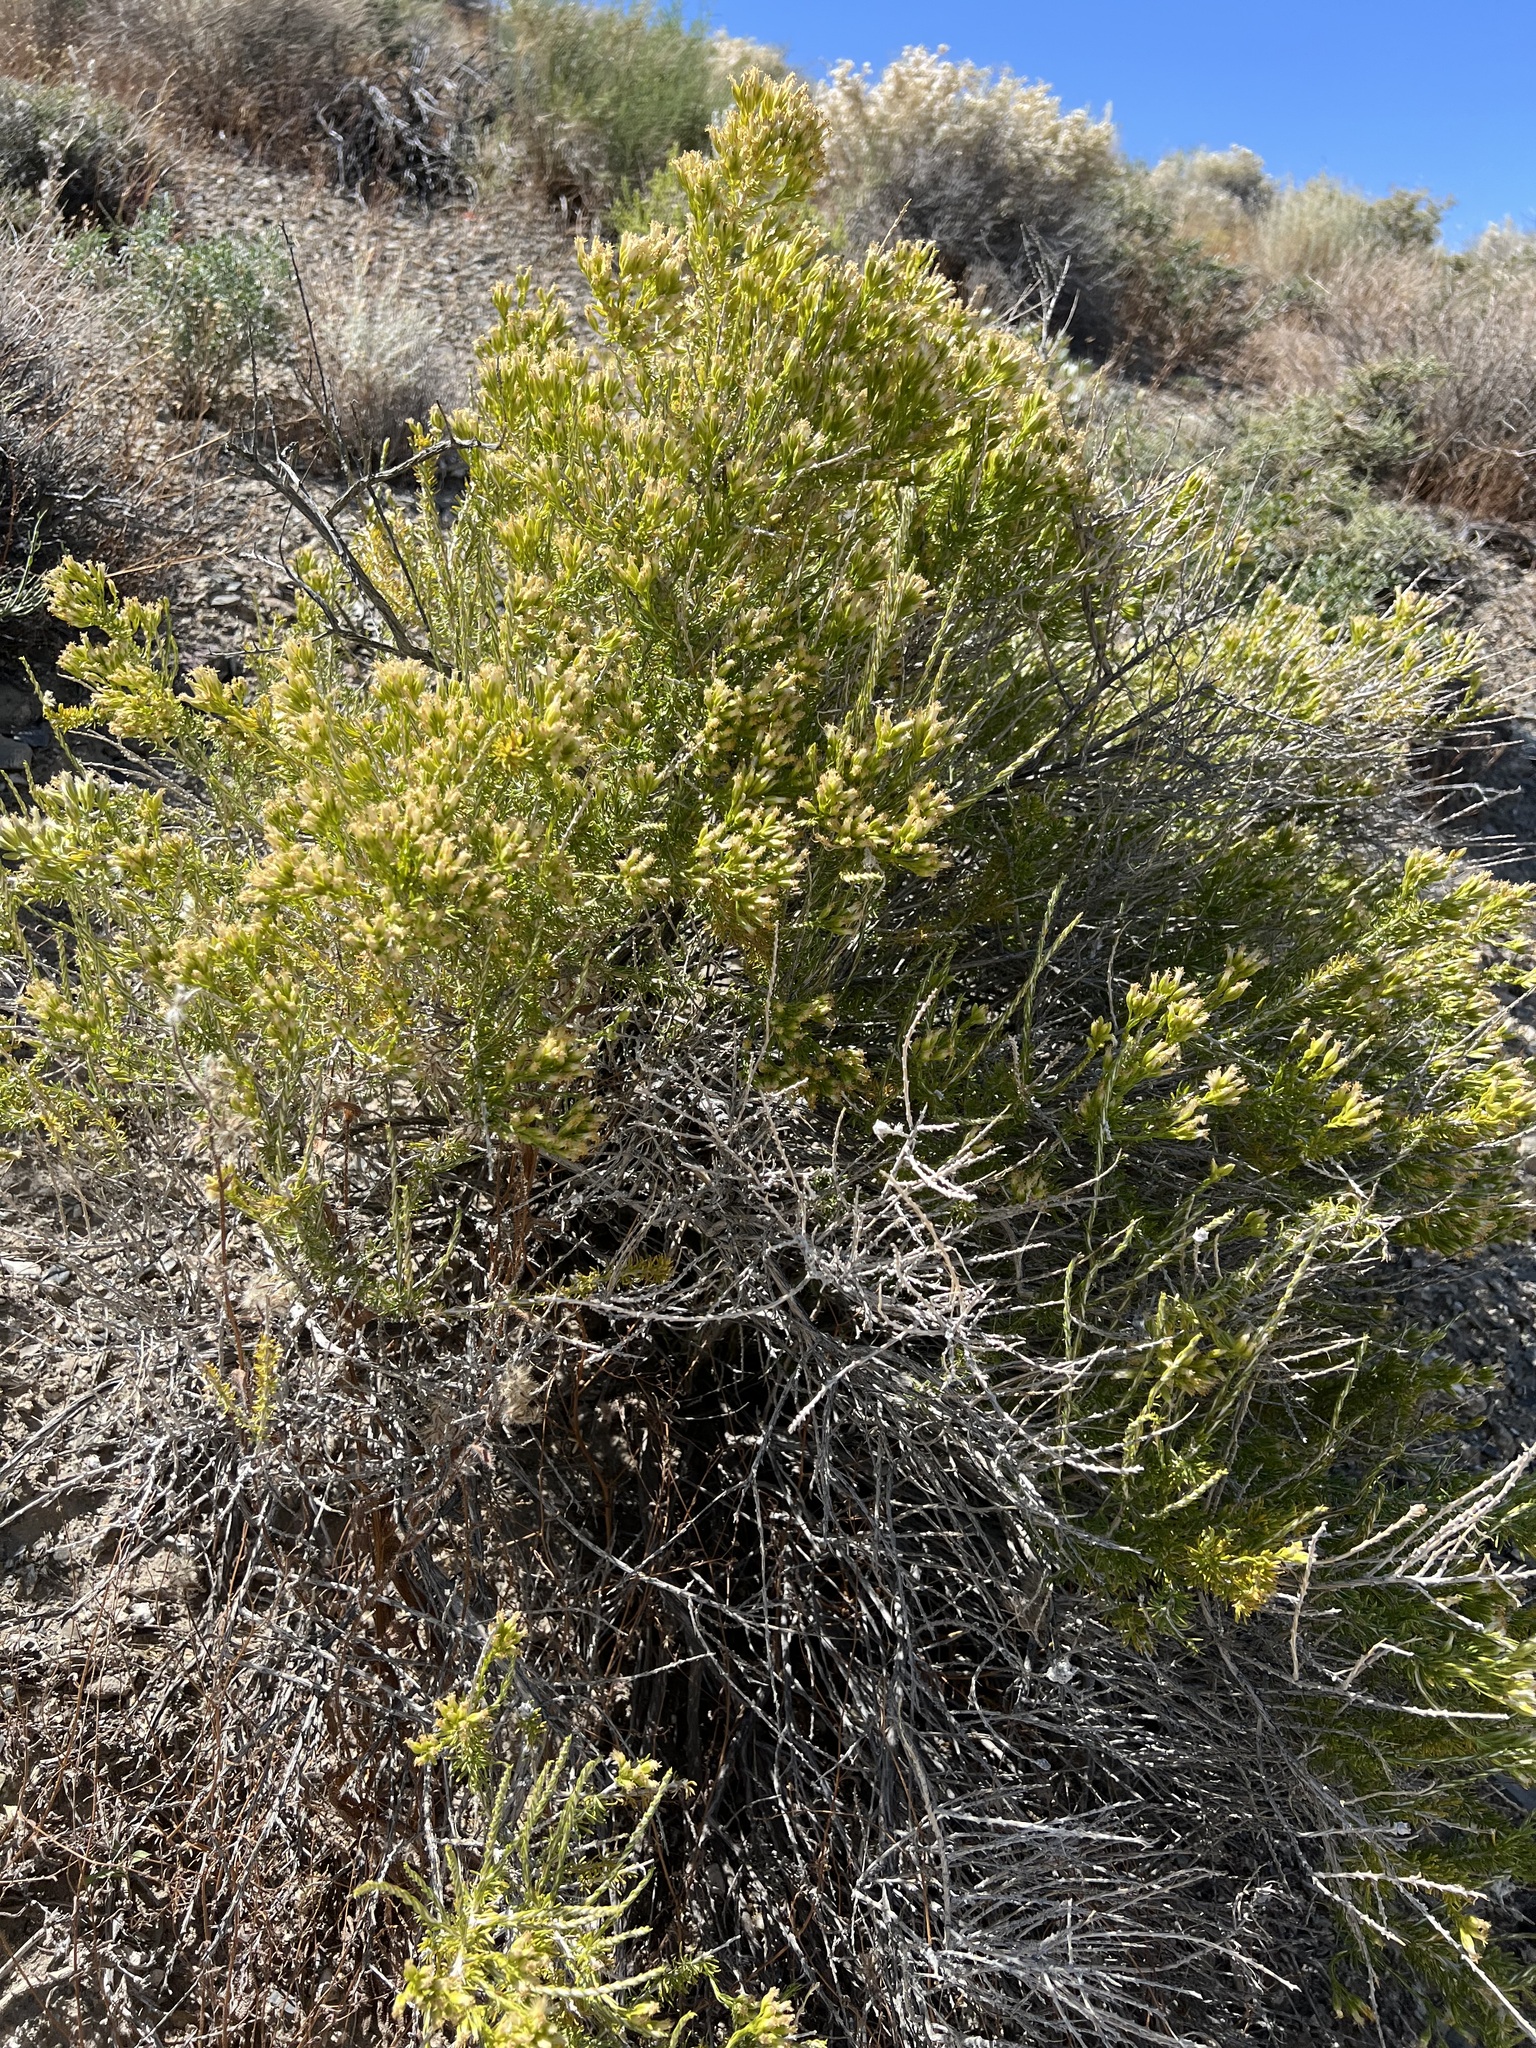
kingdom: Plantae
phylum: Tracheophyta
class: Magnoliopsida
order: Asterales
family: Asteraceae
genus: Tetradymia
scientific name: Tetradymia glabrata
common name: Smooth tetradymia
